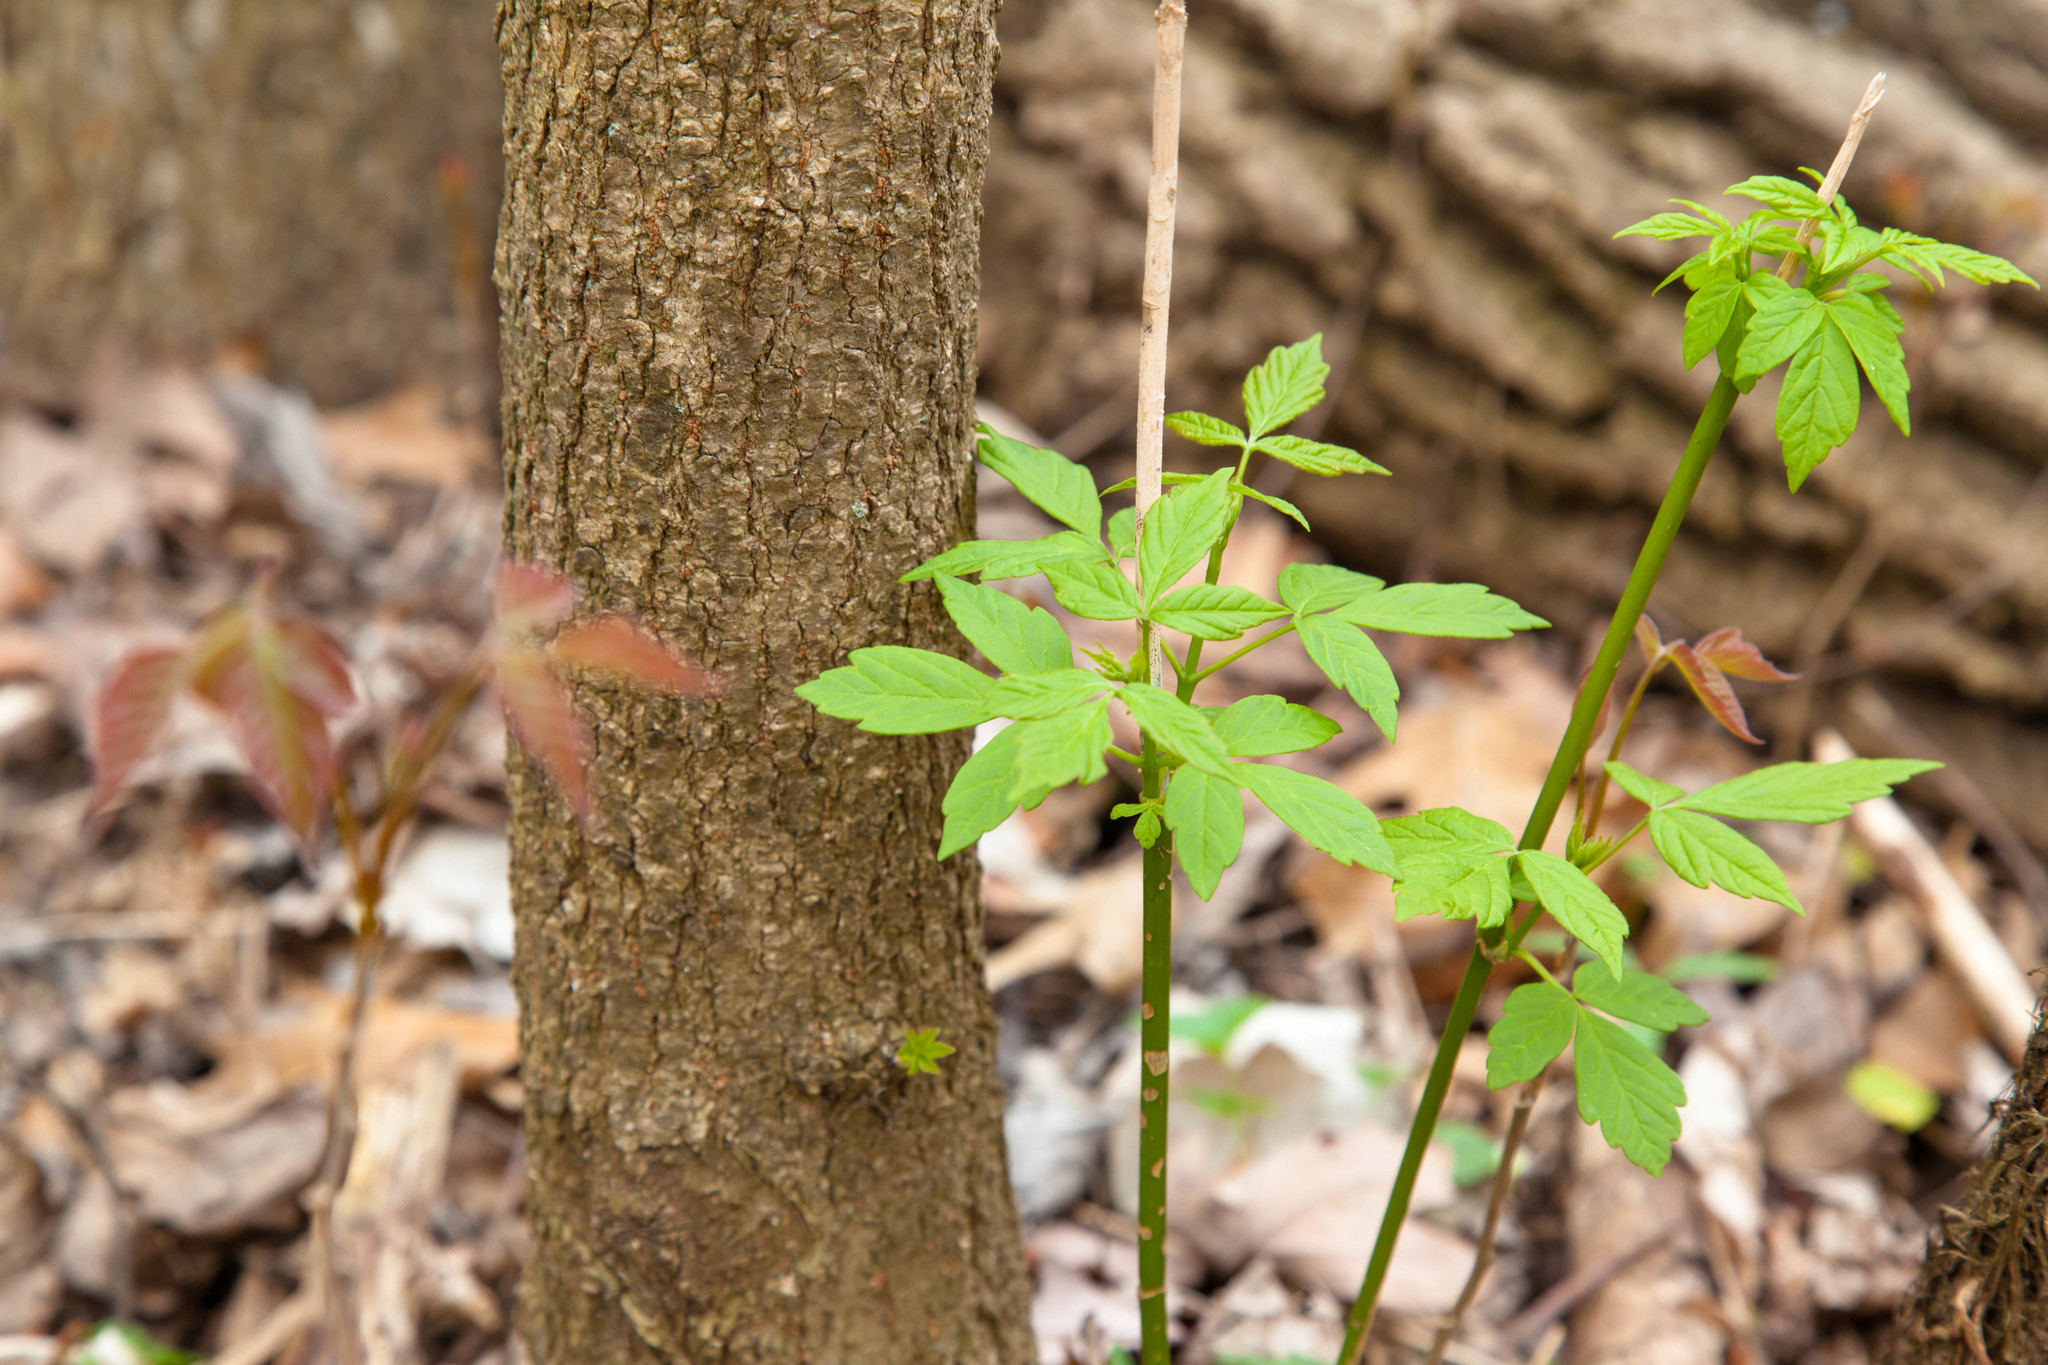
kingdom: Plantae
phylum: Tracheophyta
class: Magnoliopsida
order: Sapindales
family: Sapindaceae
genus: Acer
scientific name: Acer negundo
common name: Ashleaf maple
